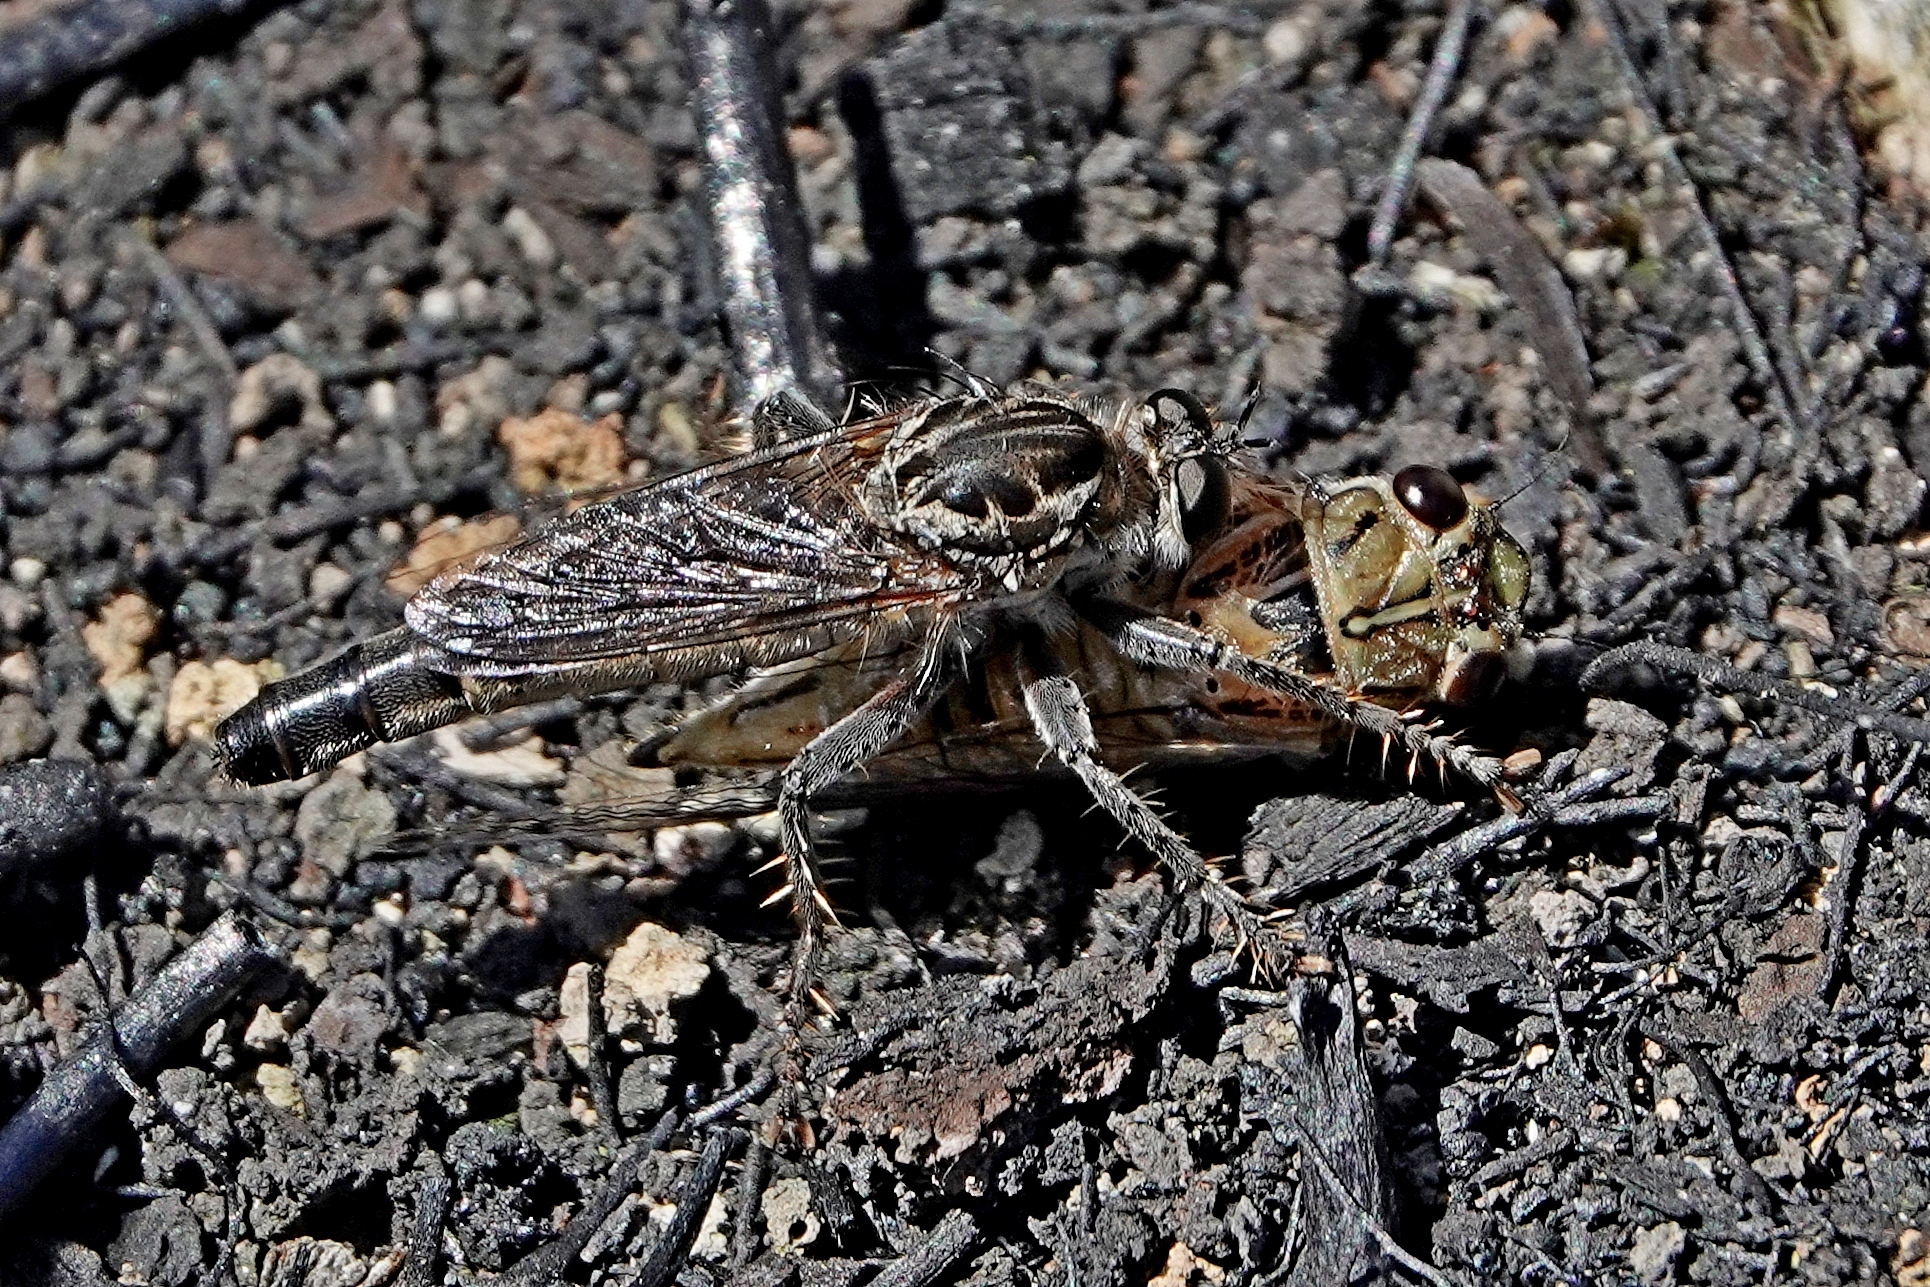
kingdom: Animalia
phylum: Arthropoda
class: Insecta
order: Hemiptera
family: Cicadidae
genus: Yoyetta
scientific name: Yoyetta celis
